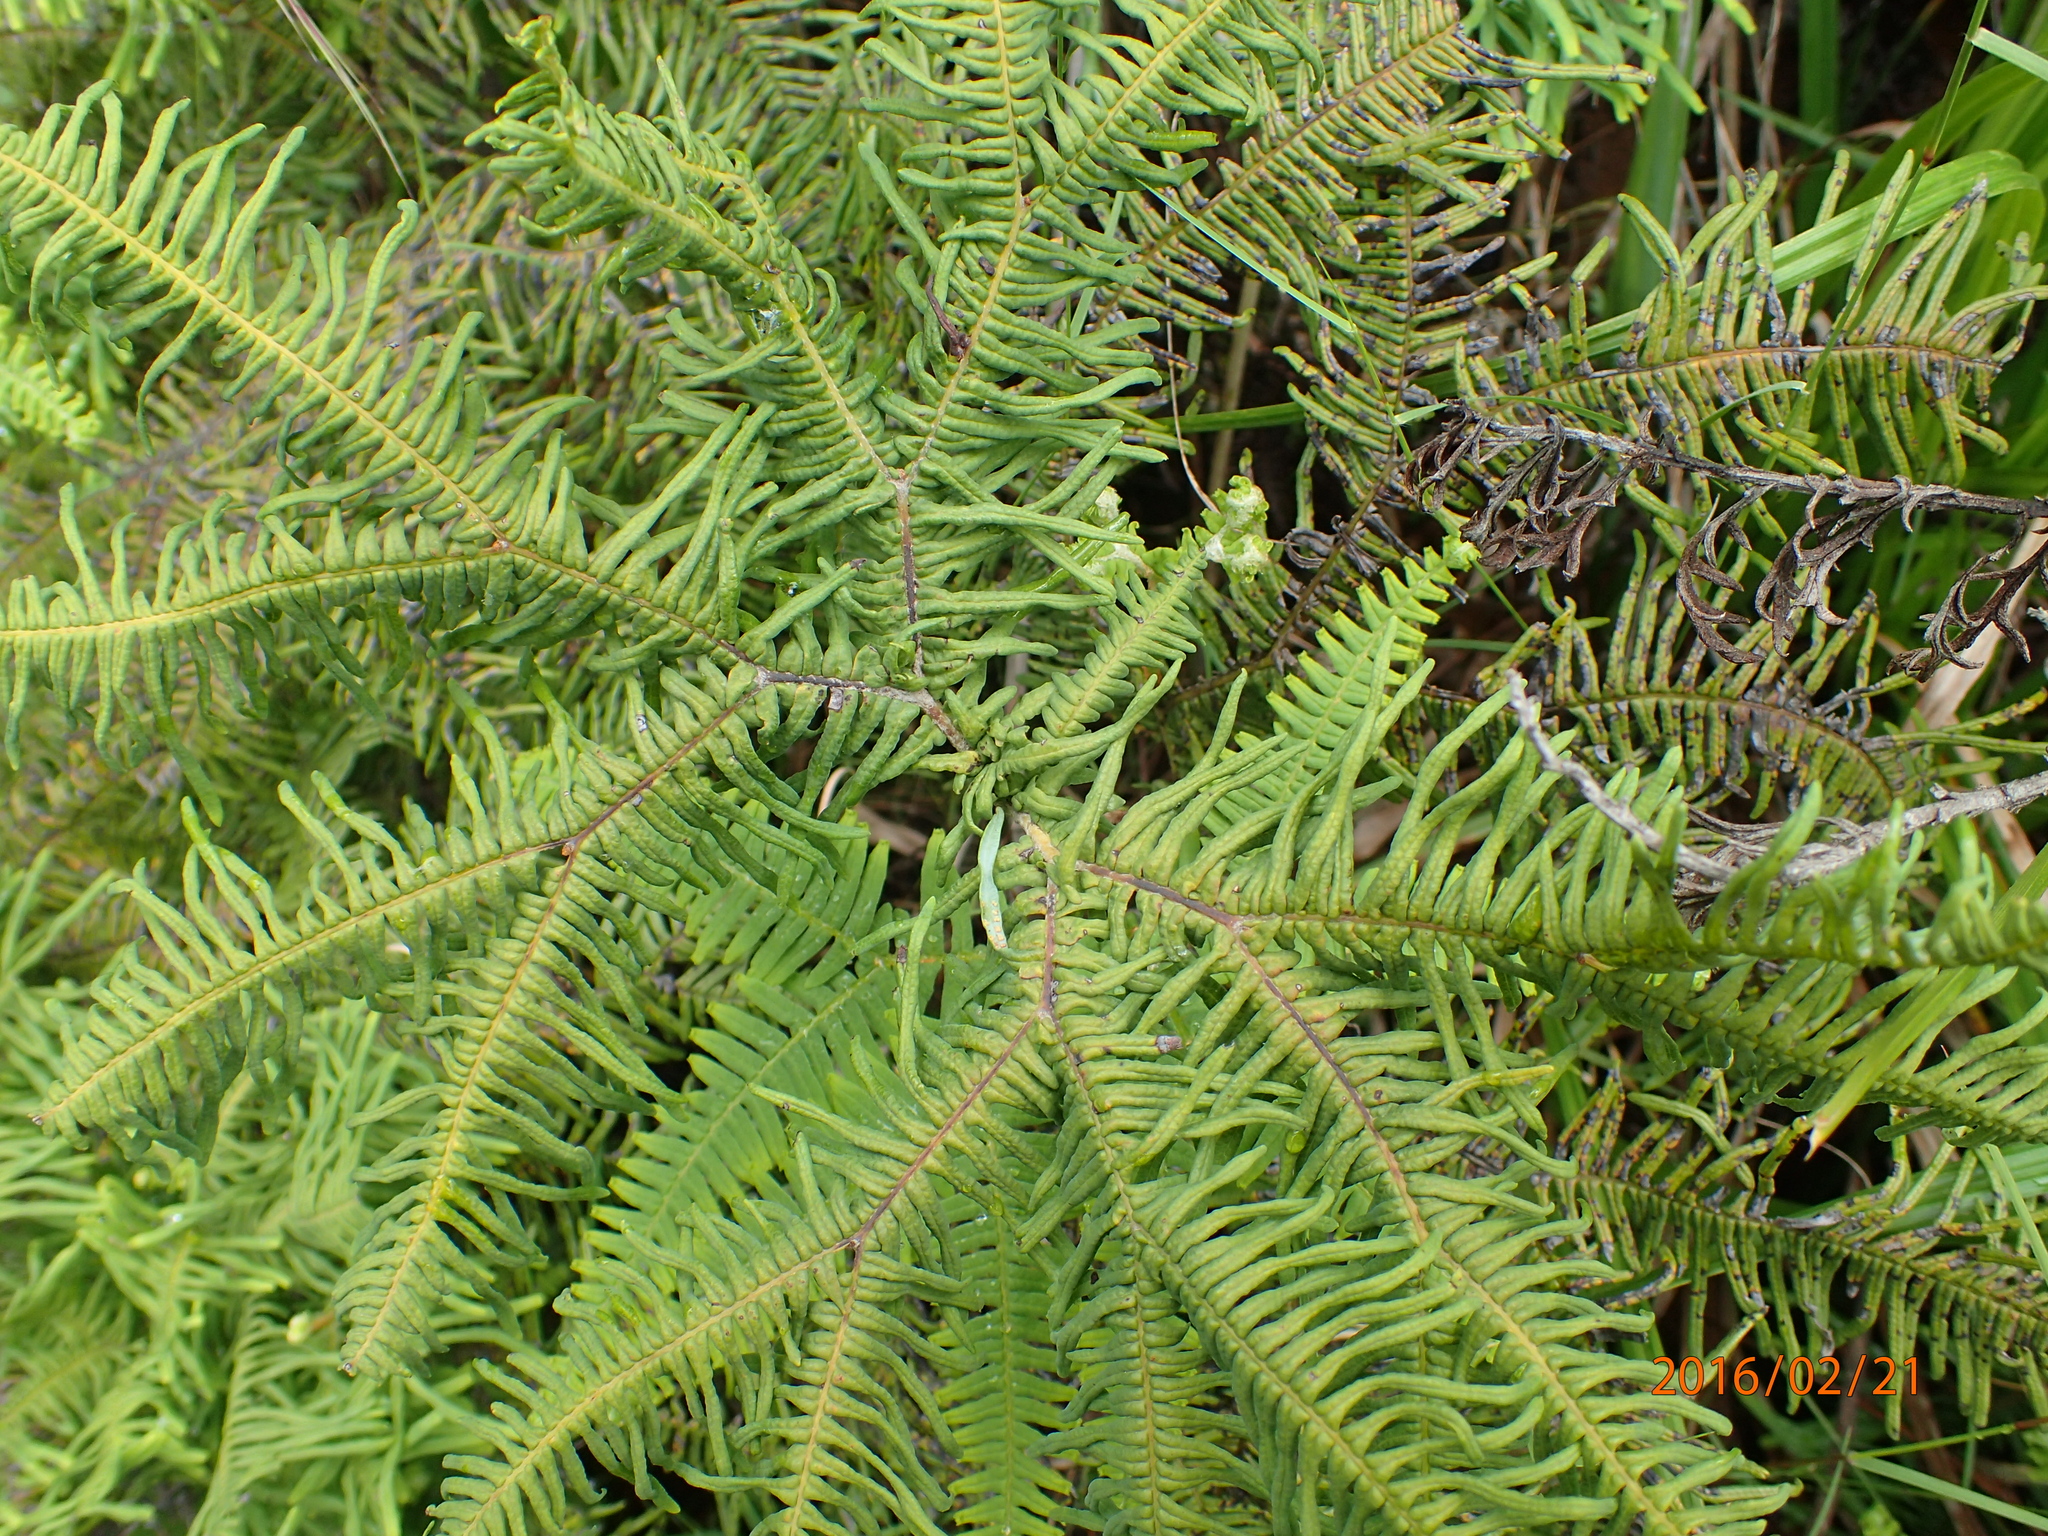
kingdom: Plantae
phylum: Tracheophyta
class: Polypodiopsida
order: Gleicheniales
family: Gleicheniaceae
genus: Sticherus
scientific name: Sticherus umbraculifer
